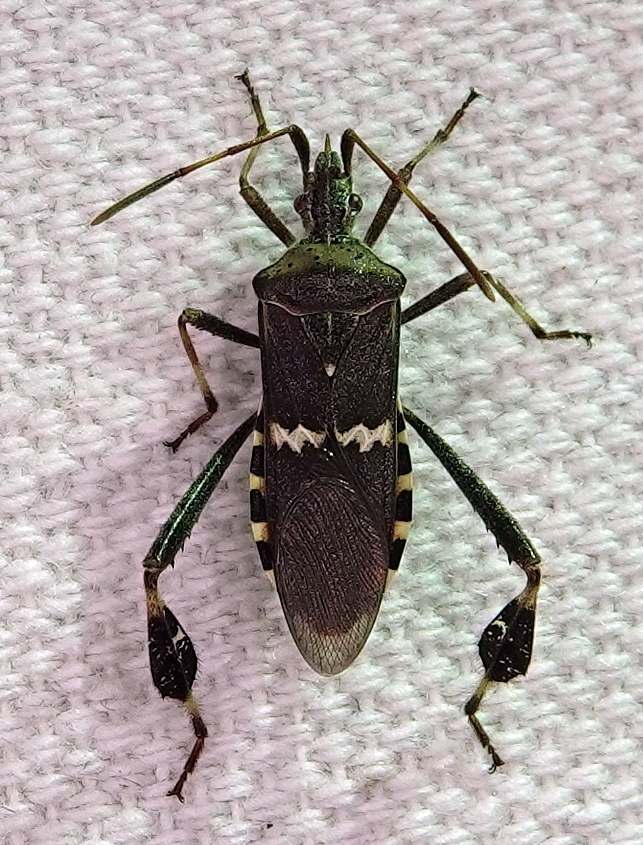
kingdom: Animalia
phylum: Arthropoda
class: Insecta
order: Hemiptera
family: Coreidae
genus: Leptoglossus
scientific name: Leptoglossus clypealis
